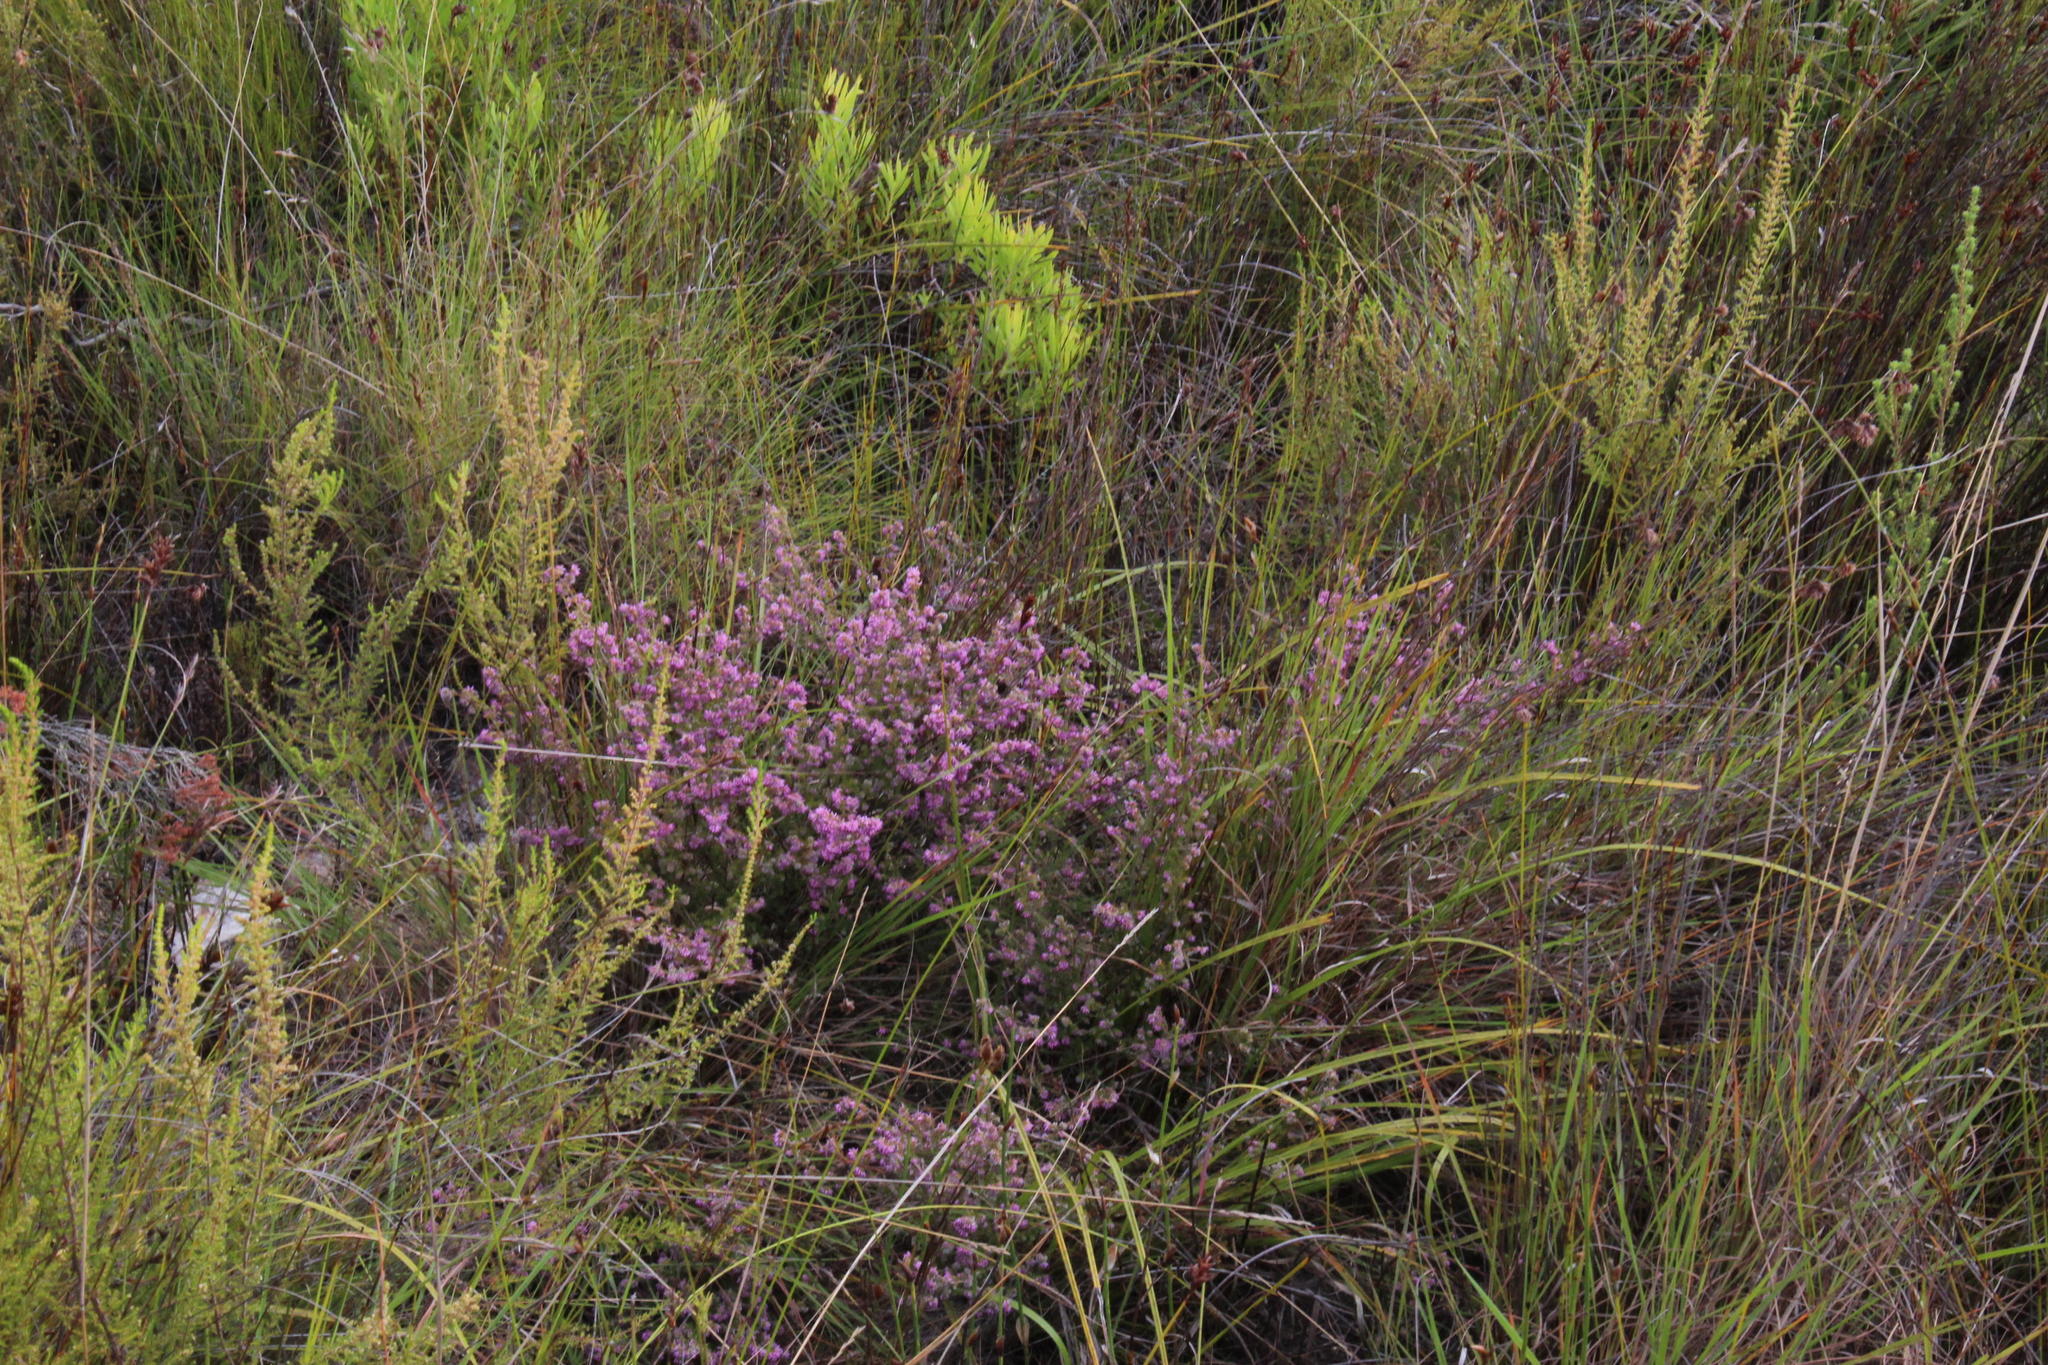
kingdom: Plantae
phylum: Tracheophyta
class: Magnoliopsida
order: Ericales
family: Ericaceae
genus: Erica
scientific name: Erica uberiflora
